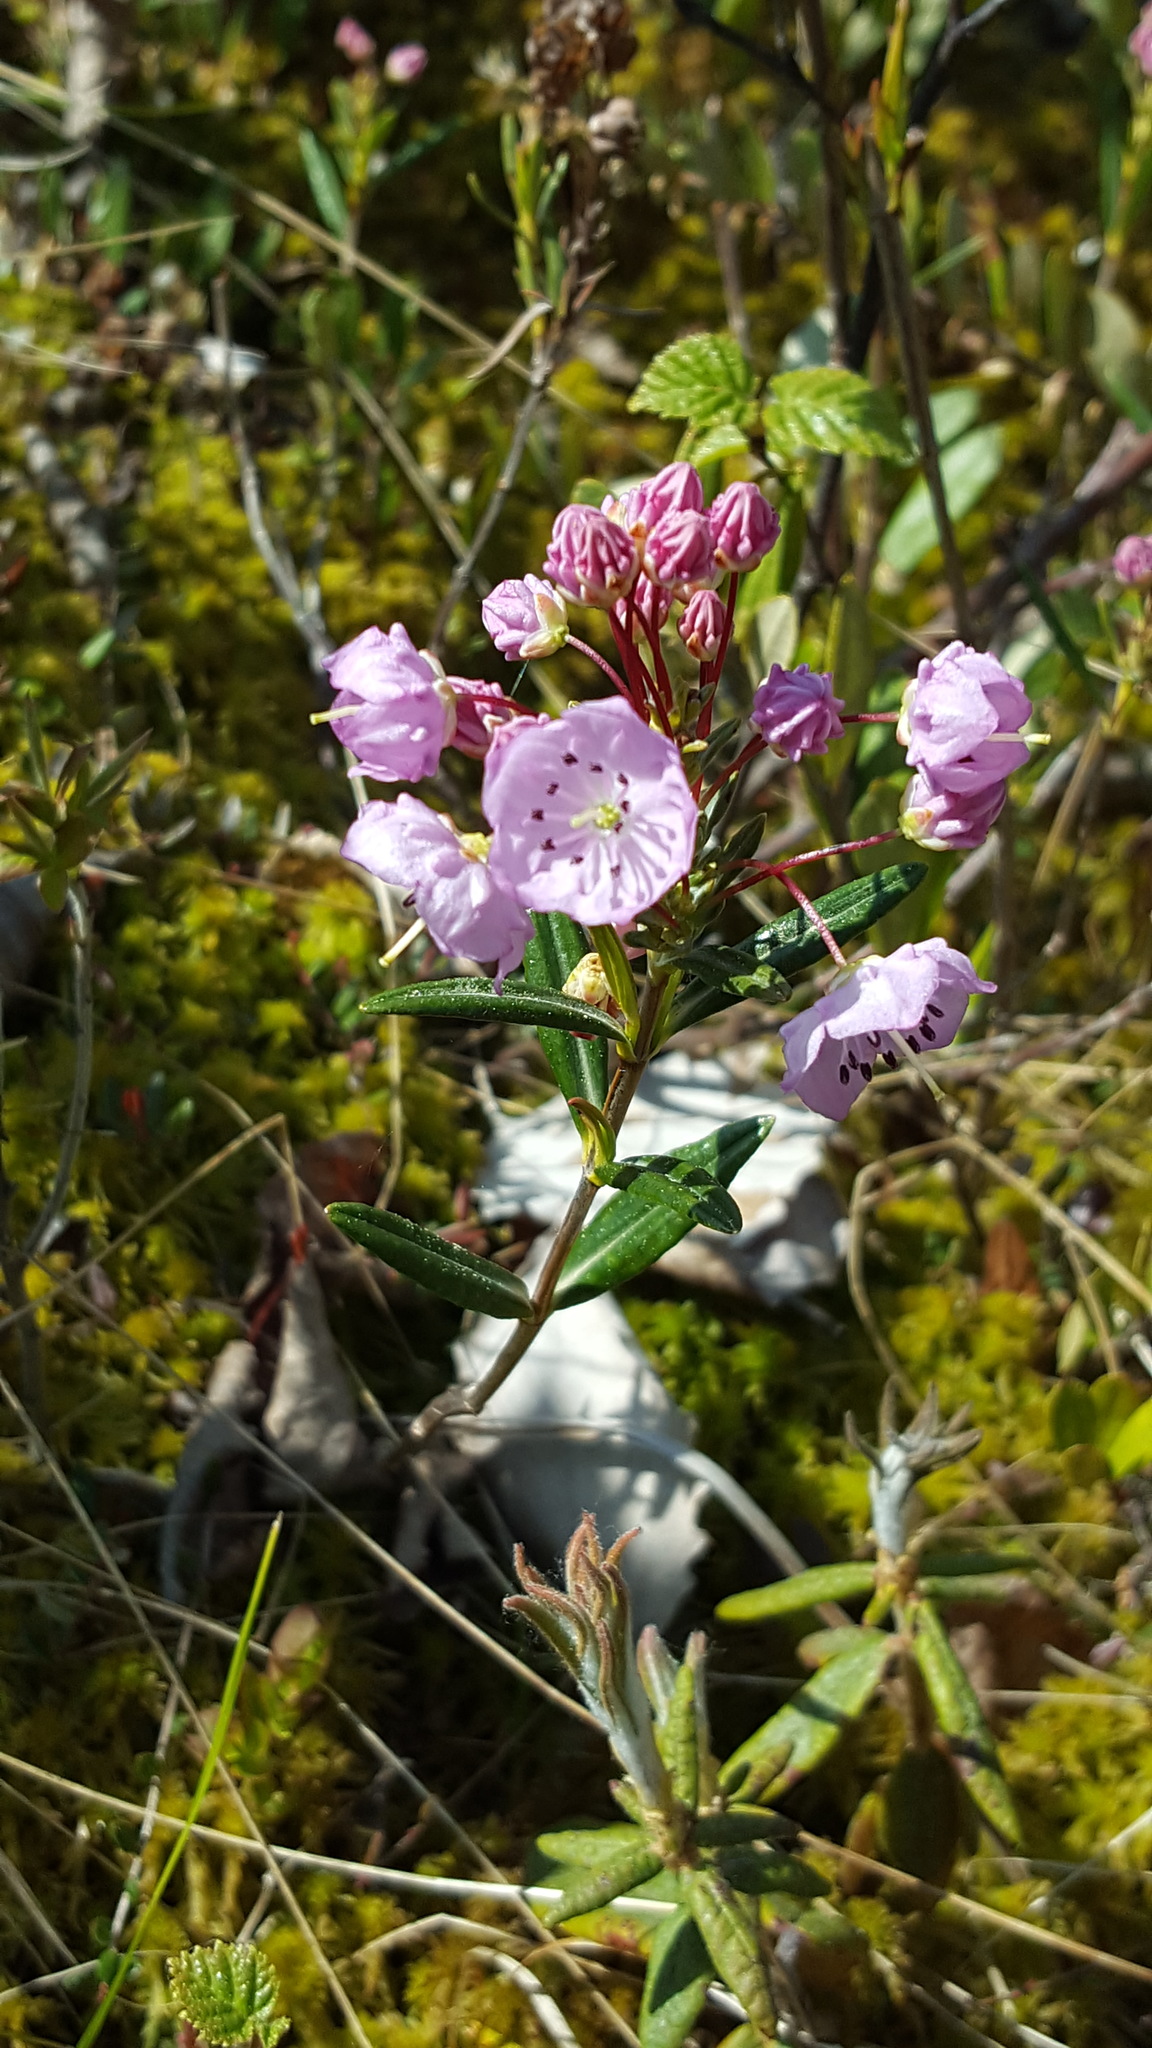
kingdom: Plantae
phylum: Tracheophyta
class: Magnoliopsida
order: Ericales
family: Ericaceae
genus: Kalmia
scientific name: Kalmia polifolia
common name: Bog-laurel
